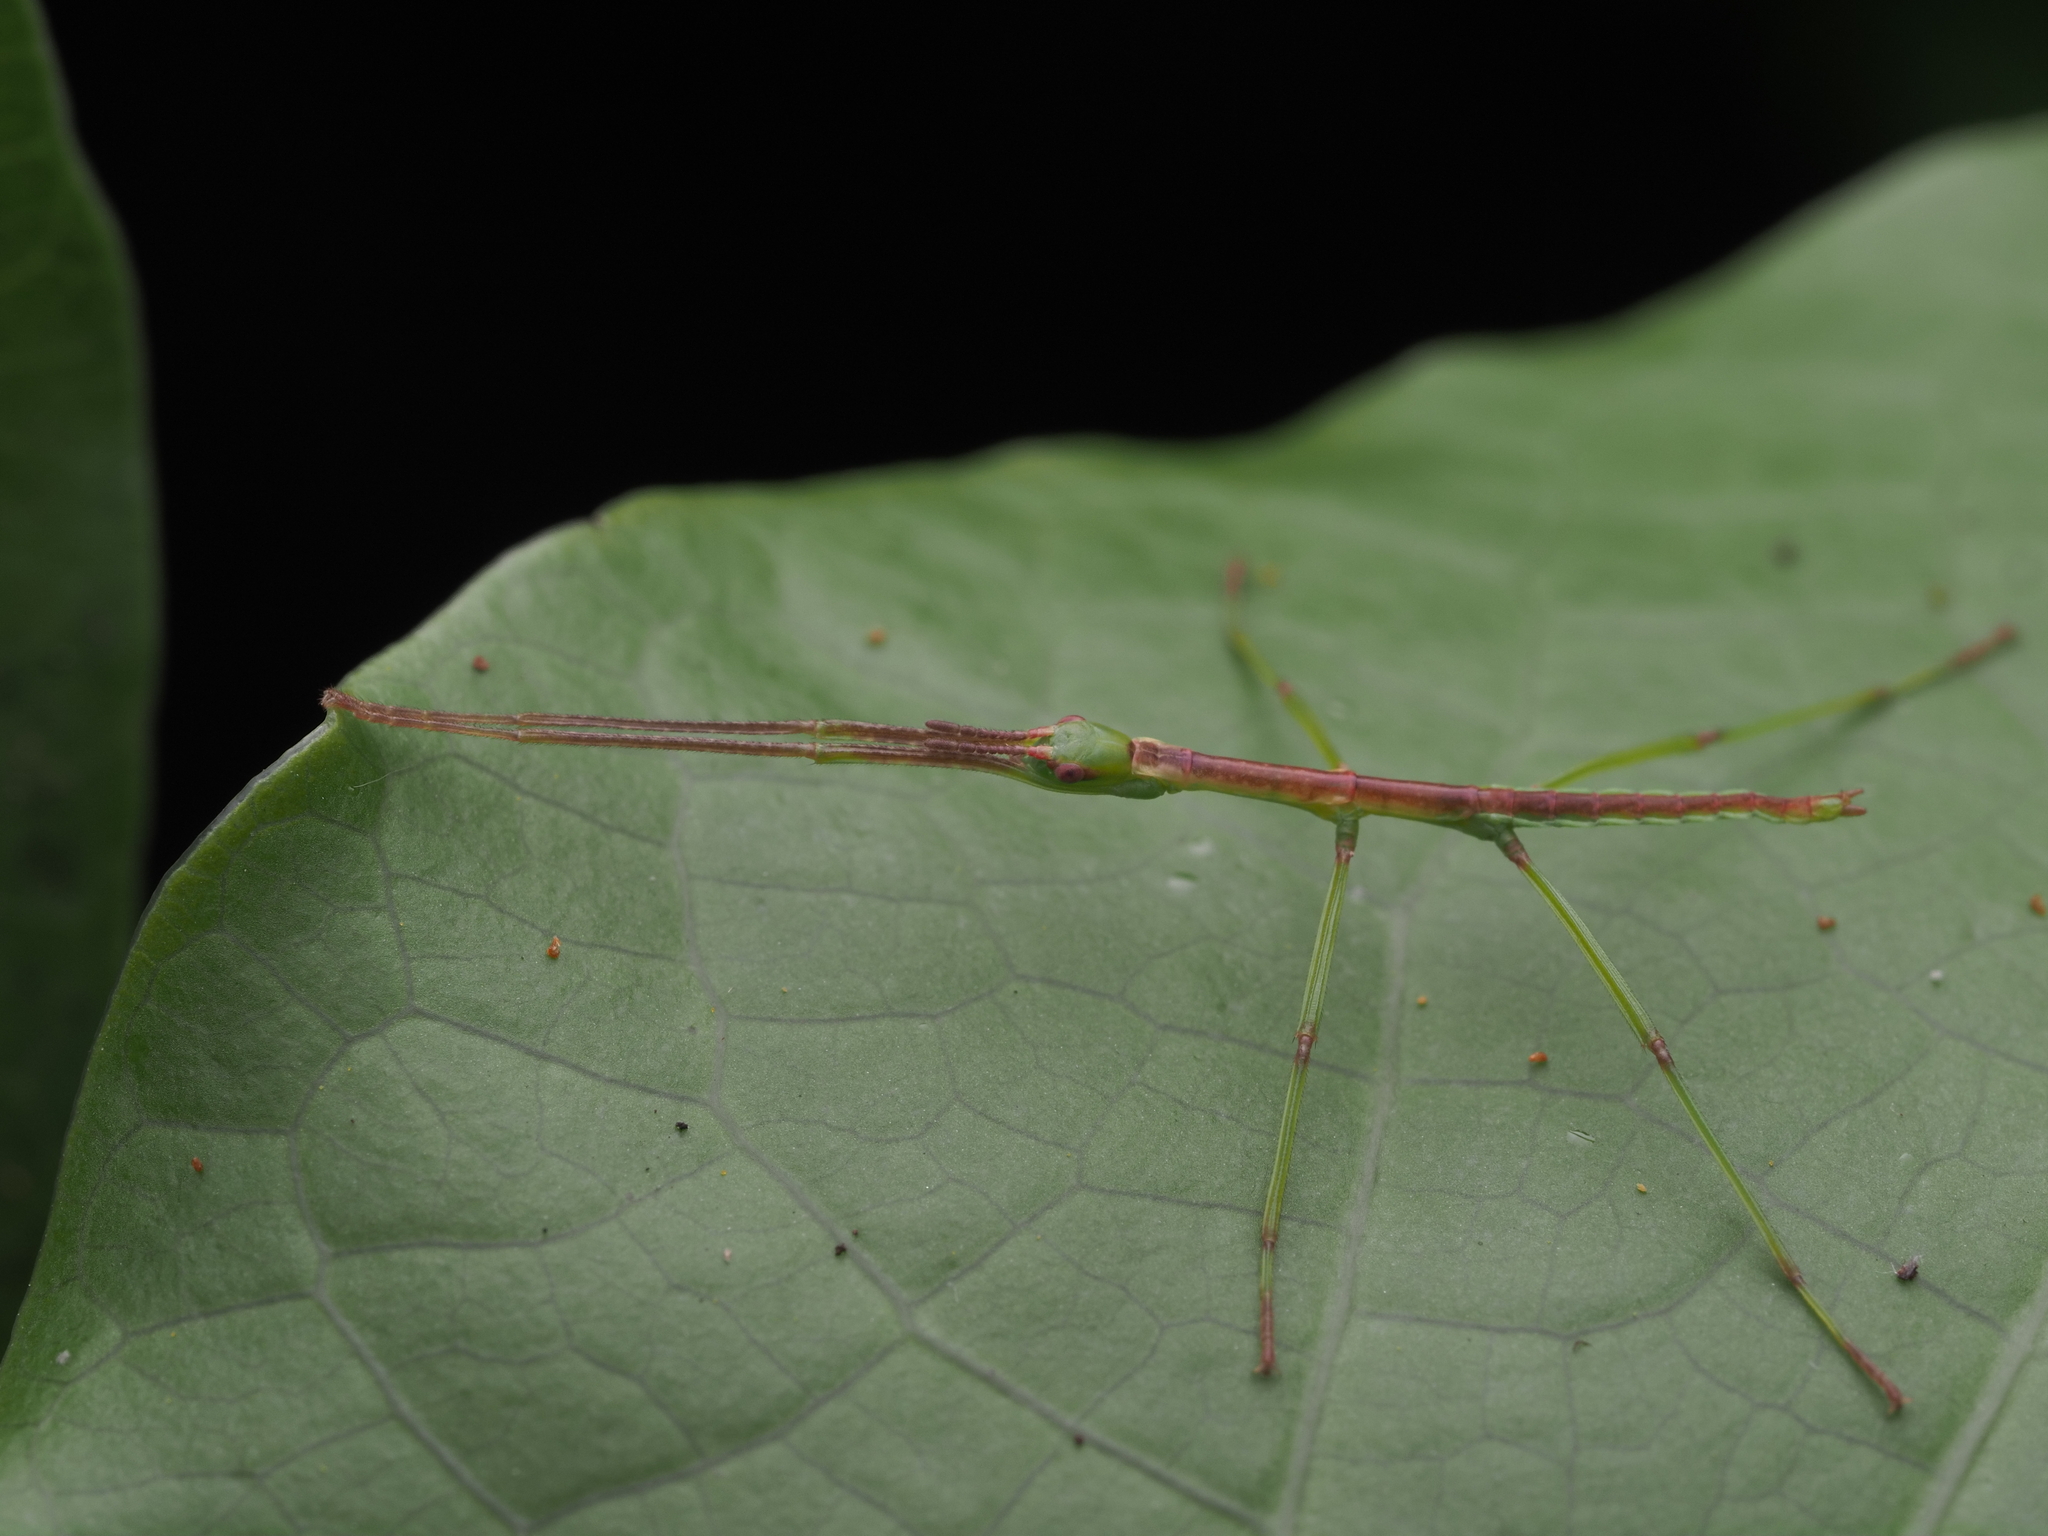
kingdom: Animalia
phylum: Arthropoda
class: Insecta
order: Phasmida
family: Phasmatidae
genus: Clitarchus
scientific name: Clitarchus hookeri
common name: Smooth stick insect
